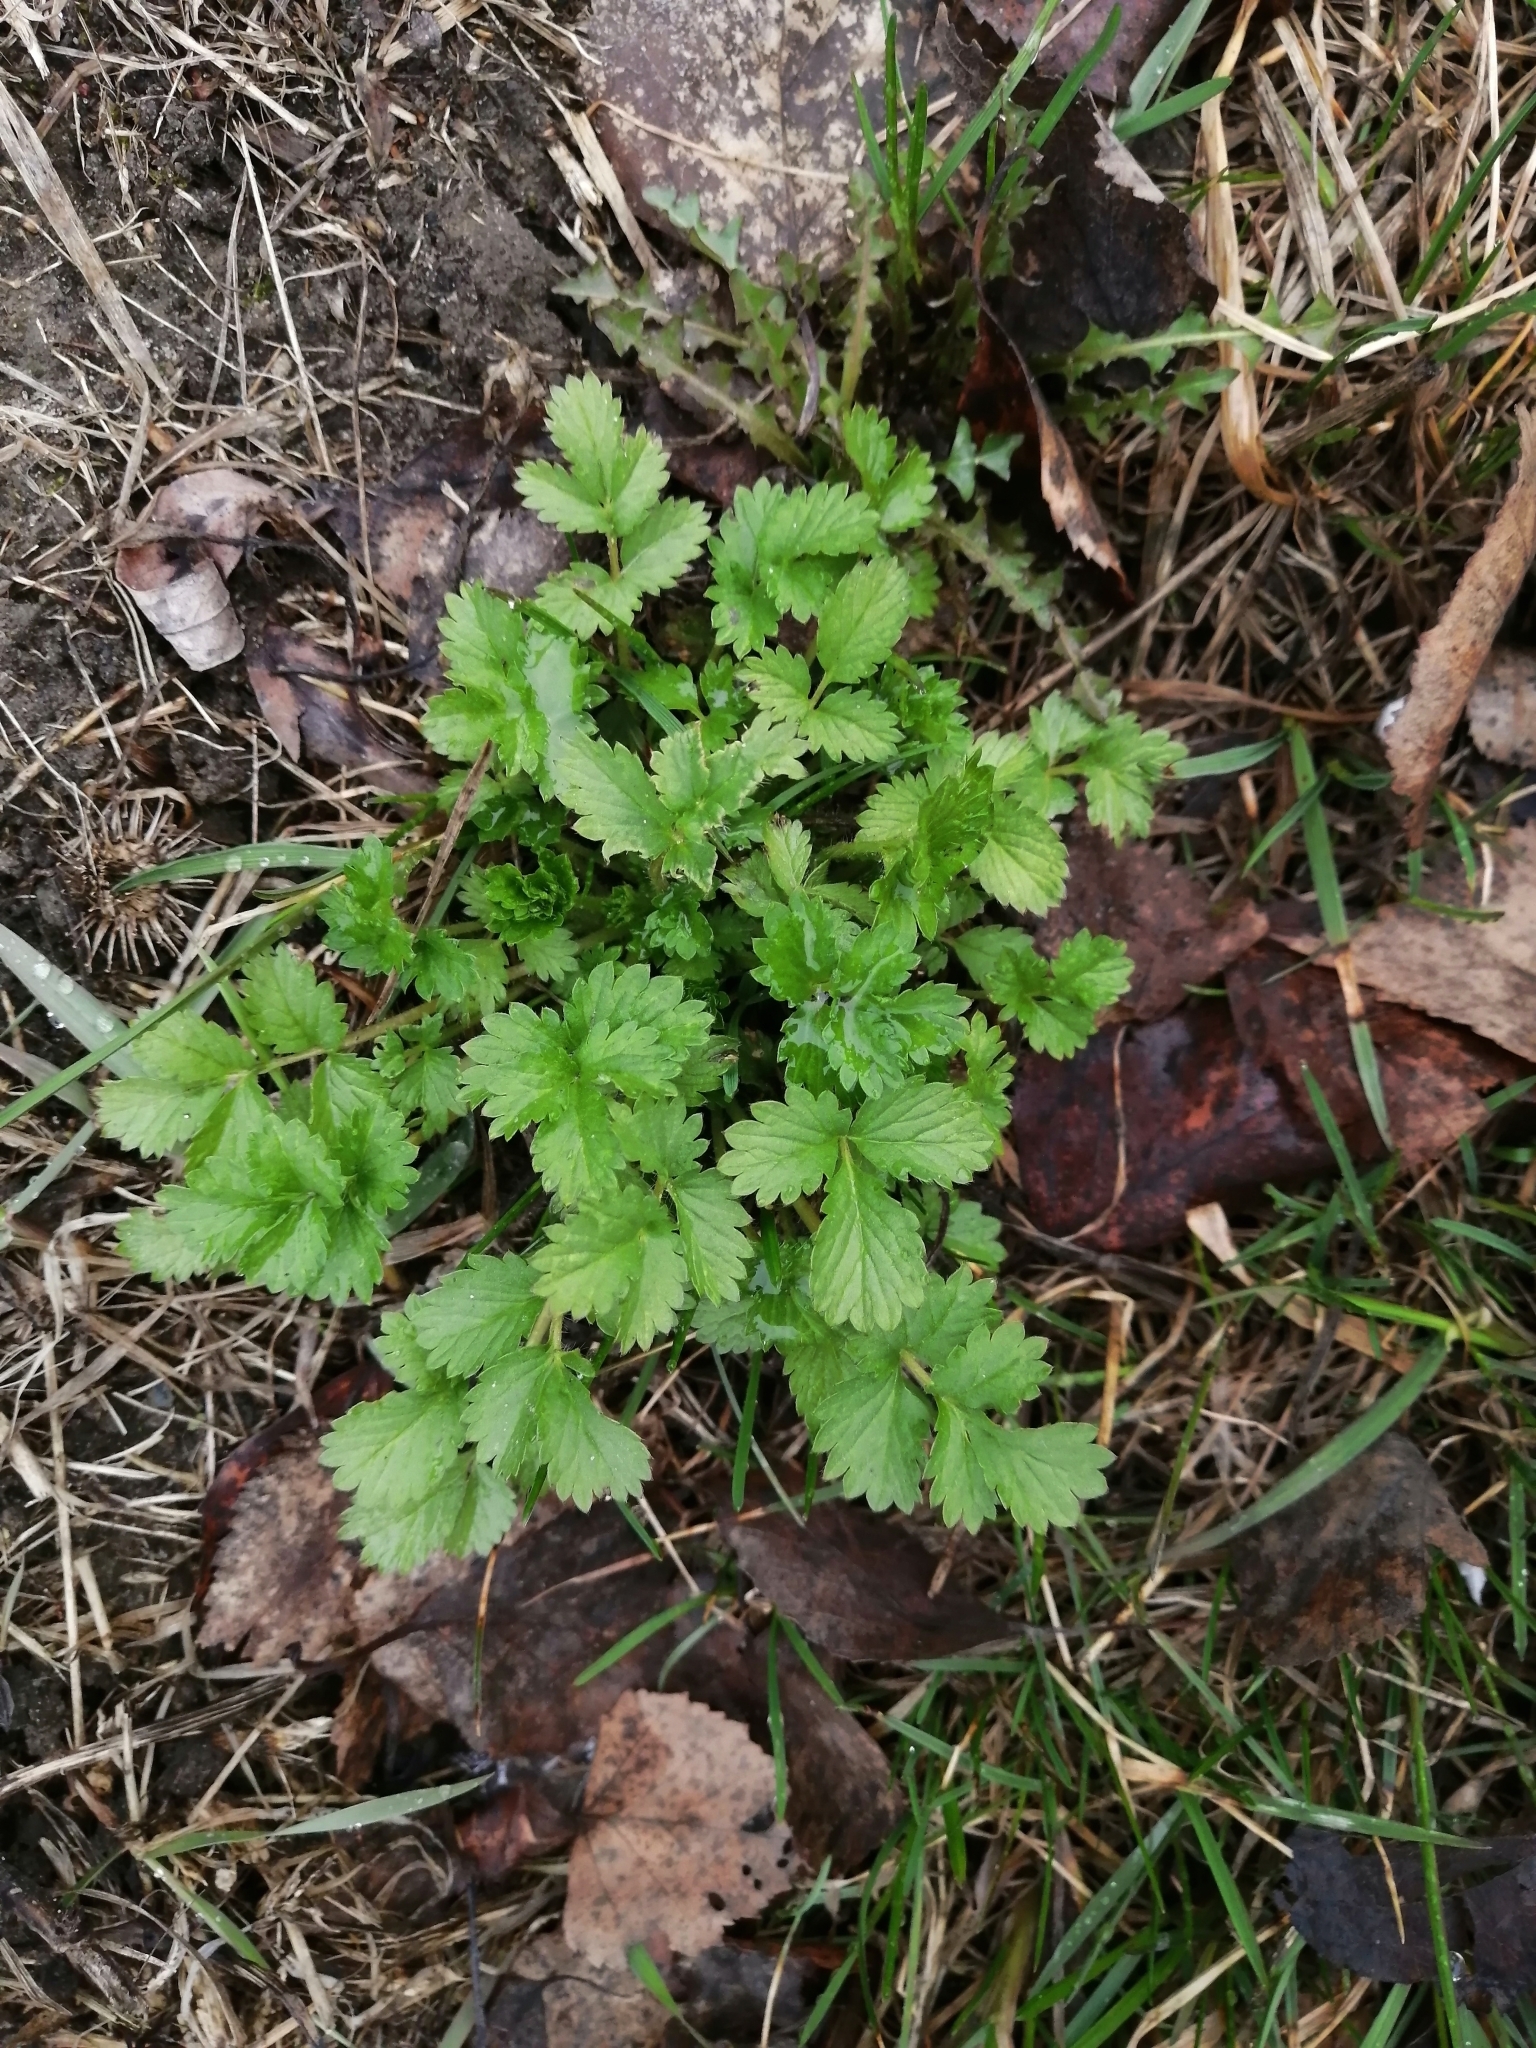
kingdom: Plantae
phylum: Tracheophyta
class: Magnoliopsida
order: Rosales
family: Rosaceae
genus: Potentilla
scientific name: Potentilla norvegica
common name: Ternate-leaved cinquefoil
